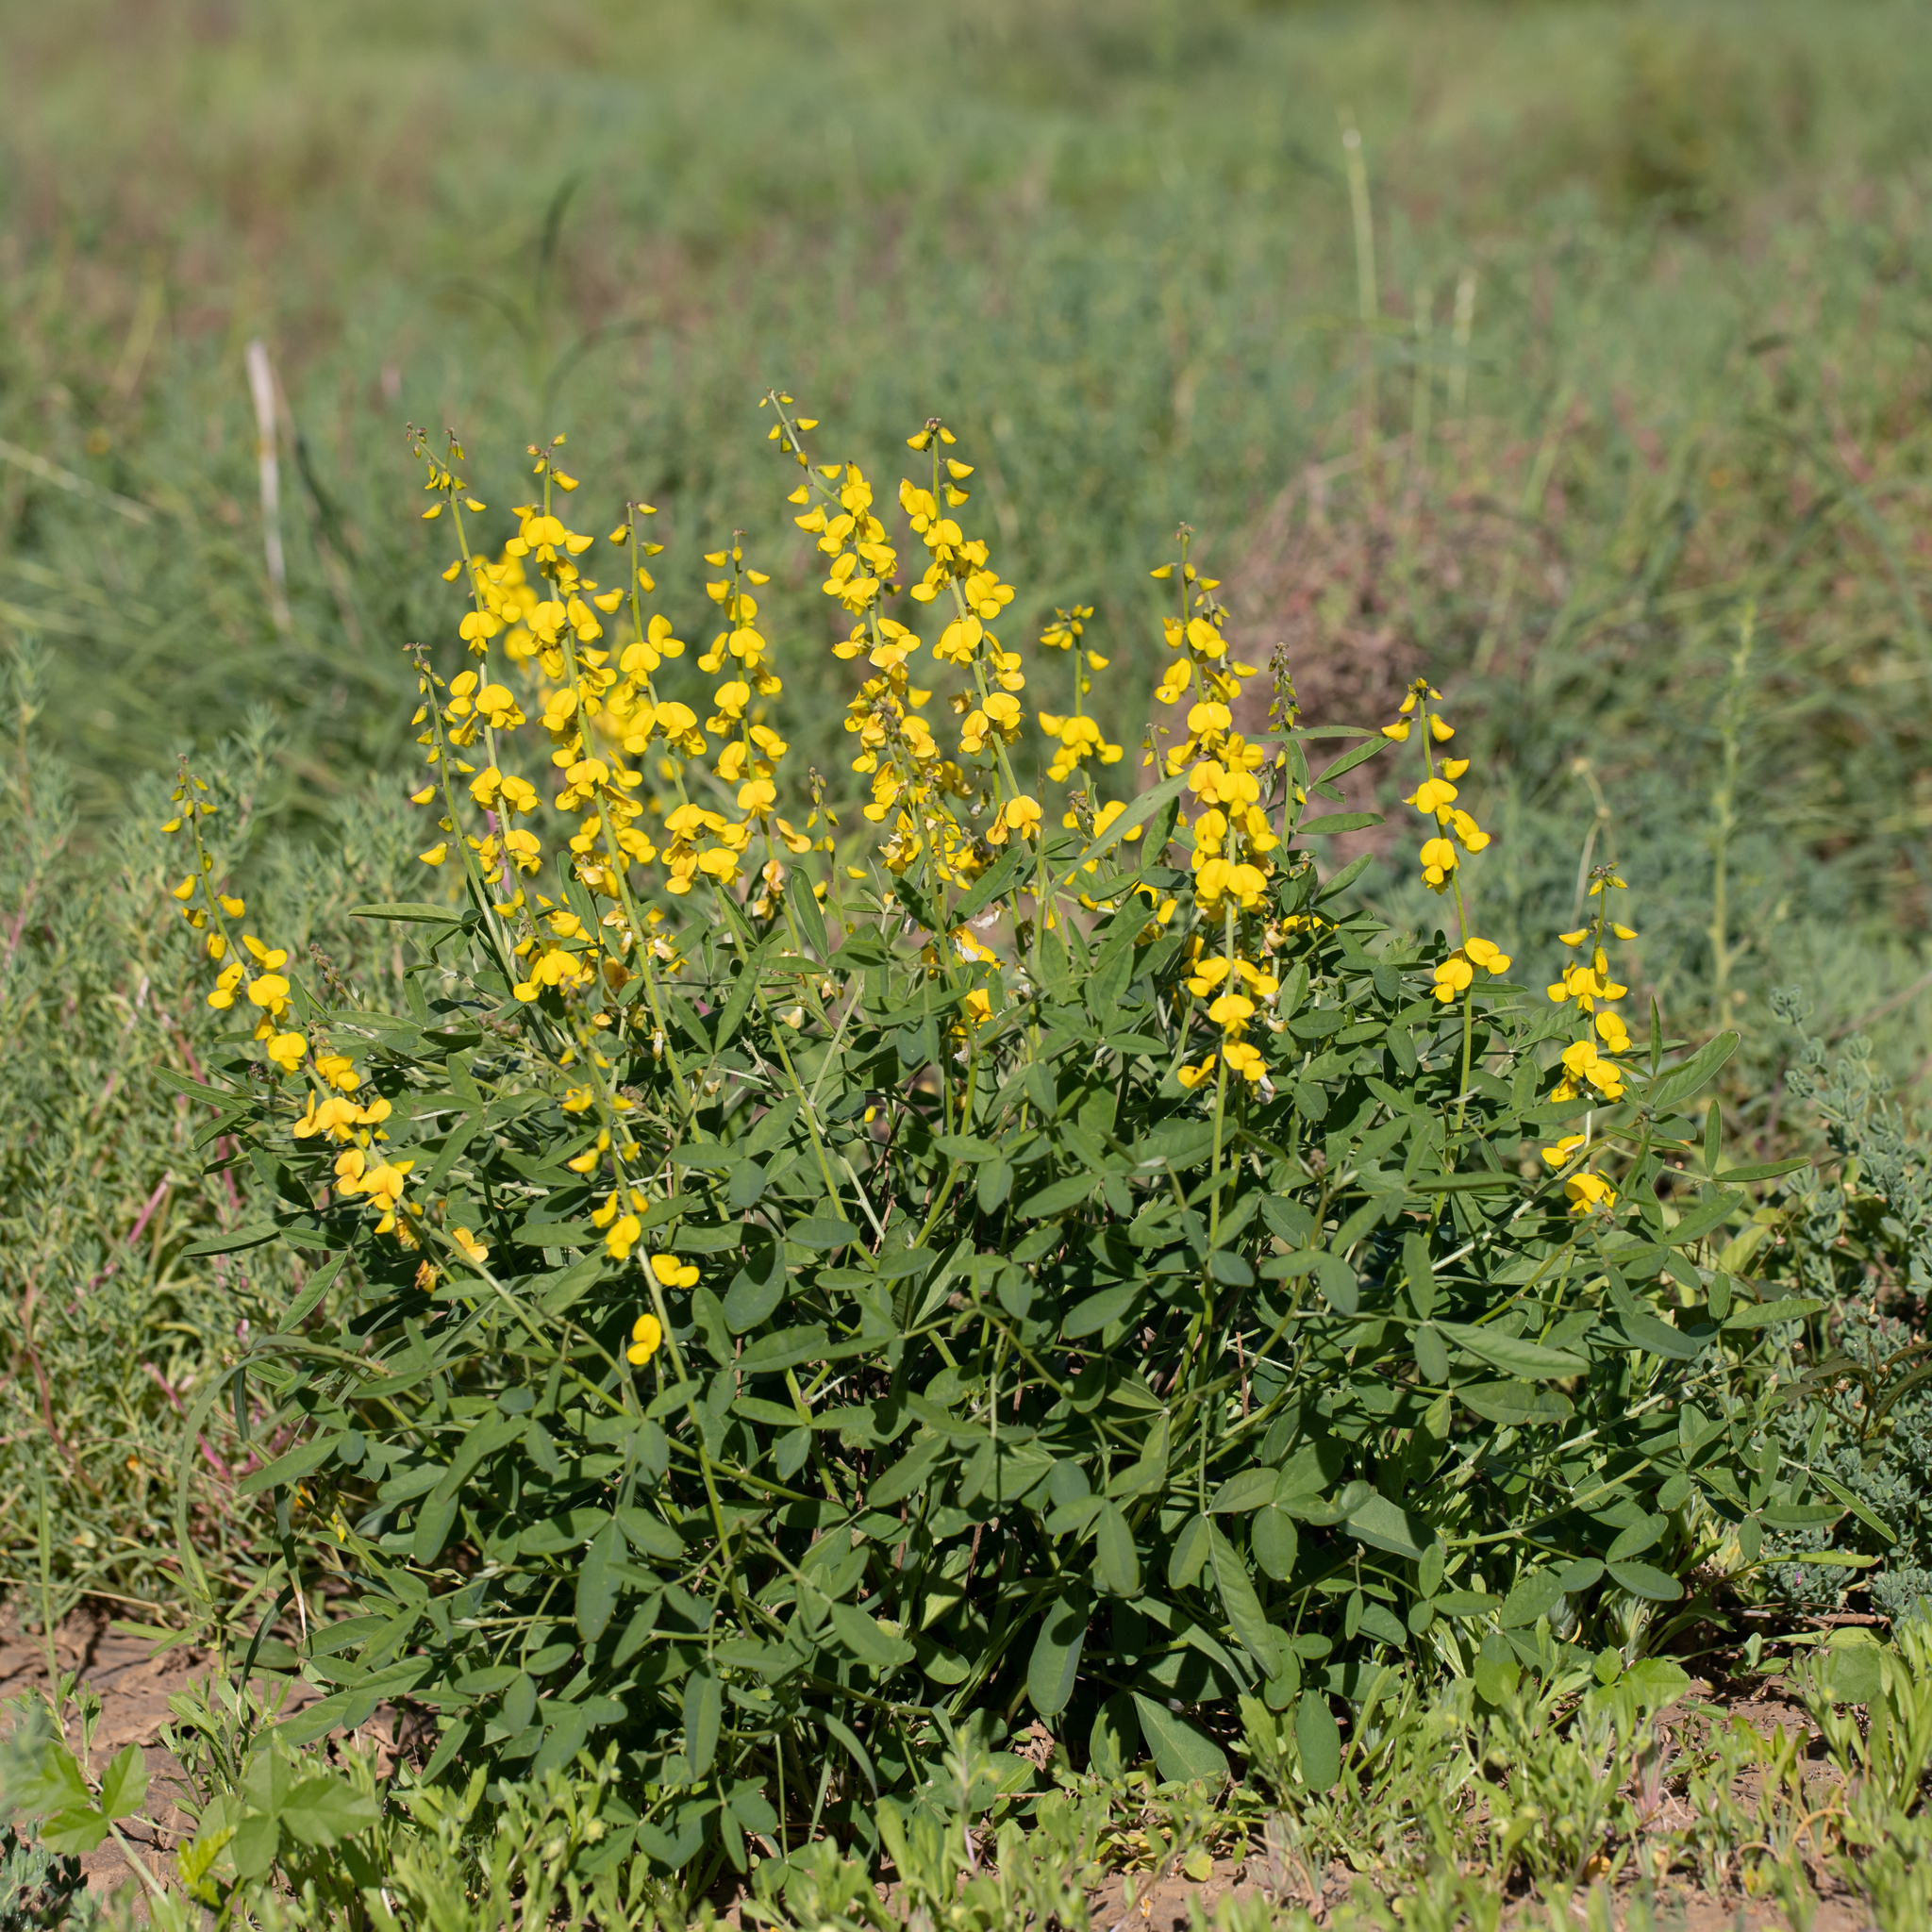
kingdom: Plantae
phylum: Tracheophyta
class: Magnoliopsida
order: Fabales
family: Fabaceae
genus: Crotalaria
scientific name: Crotalaria dissitiflora
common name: Grey rattlepod
